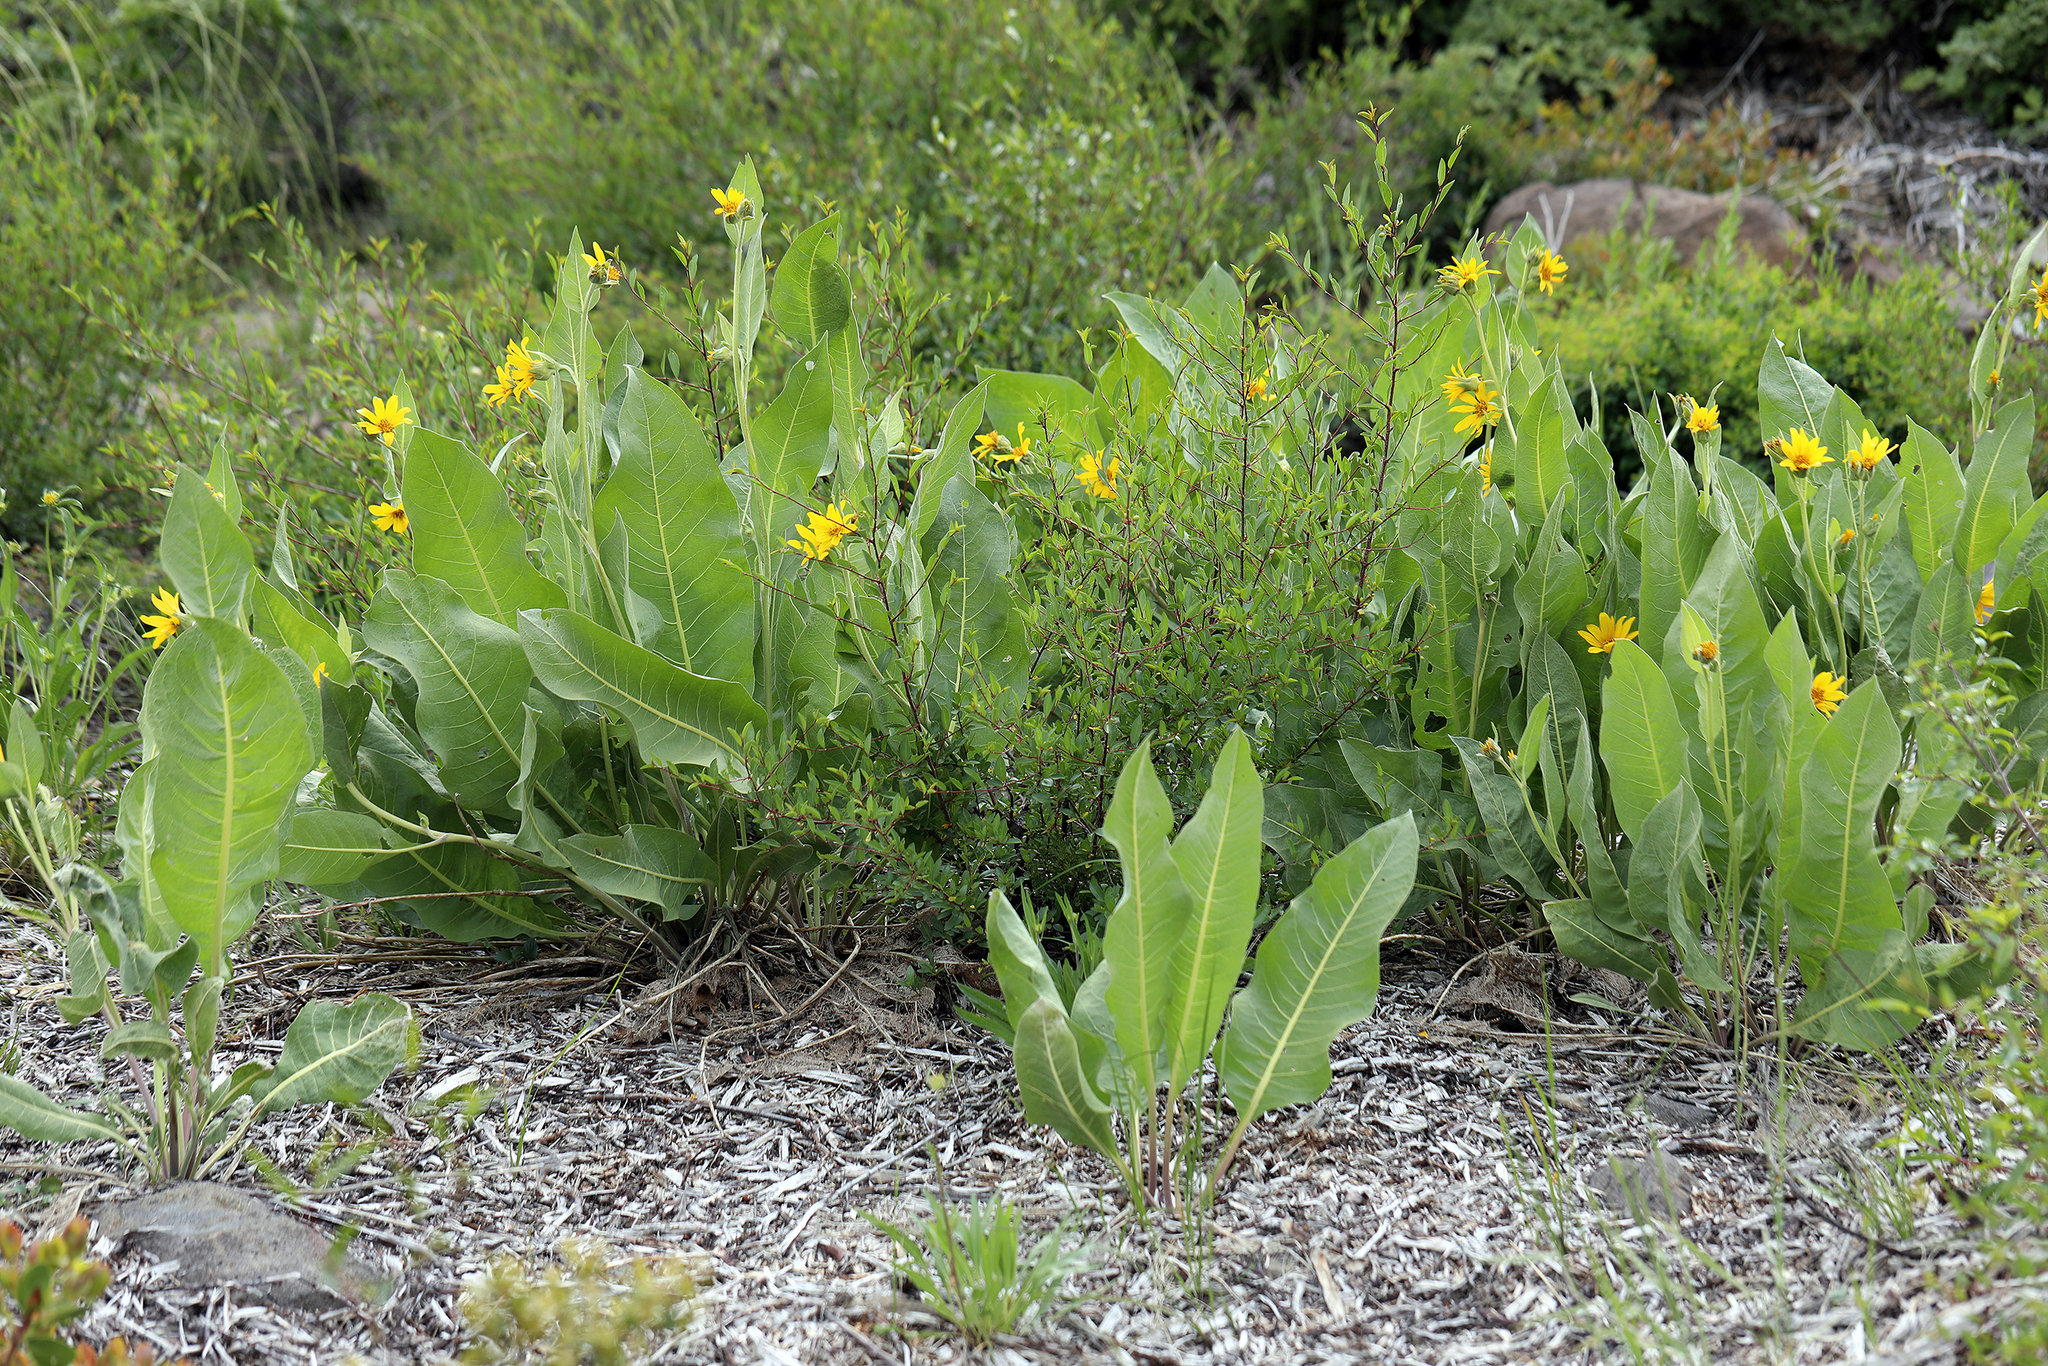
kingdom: Plantae
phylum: Tracheophyta
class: Magnoliopsida
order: Asterales
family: Asteraceae
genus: Wyethia
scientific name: Wyethia mollis
